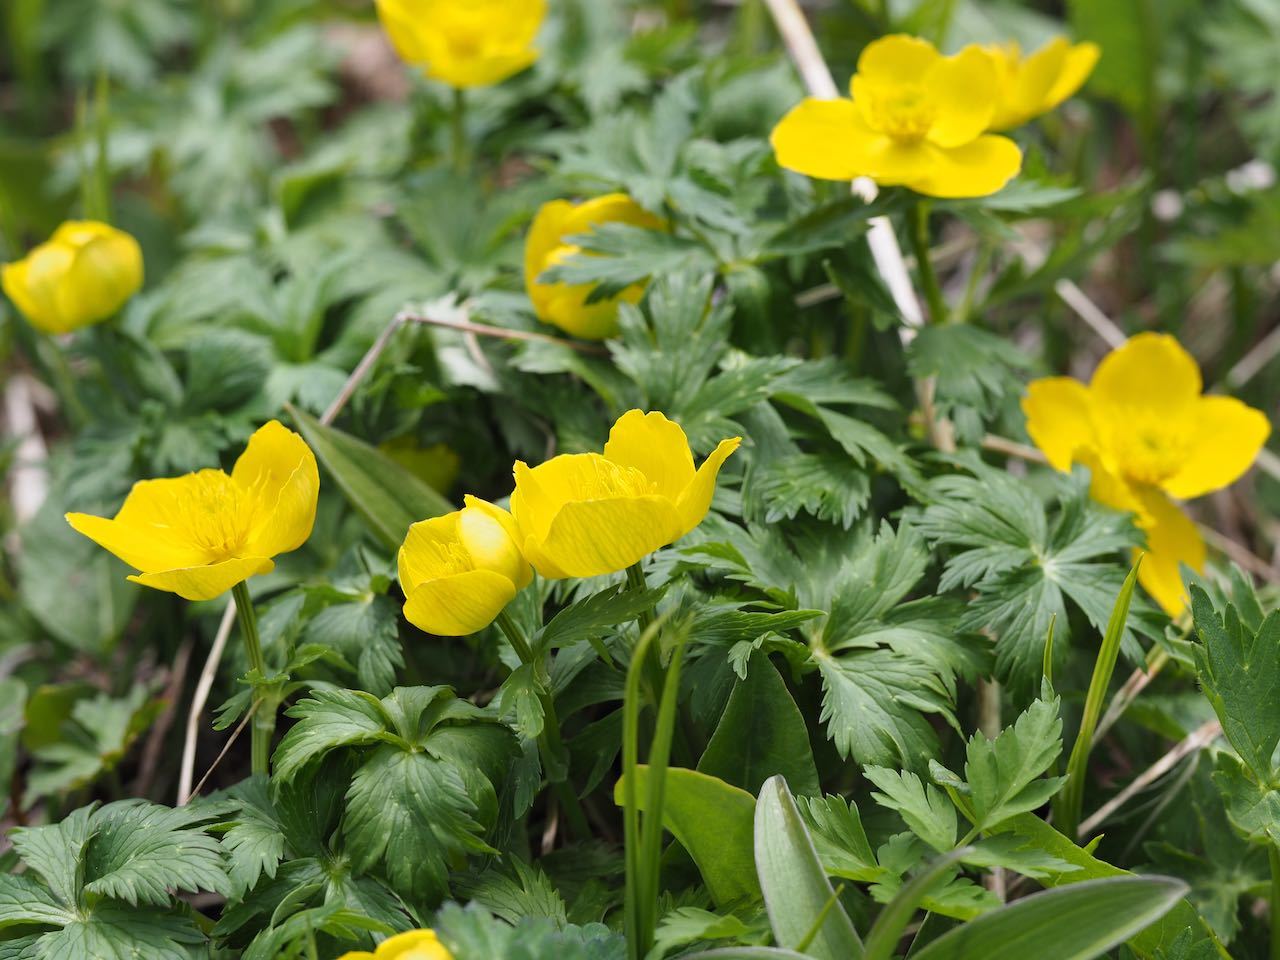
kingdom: Plantae
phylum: Tracheophyta
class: Magnoliopsida
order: Ranunculales
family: Ranunculaceae
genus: Trollius
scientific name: Trollius shinanensis
